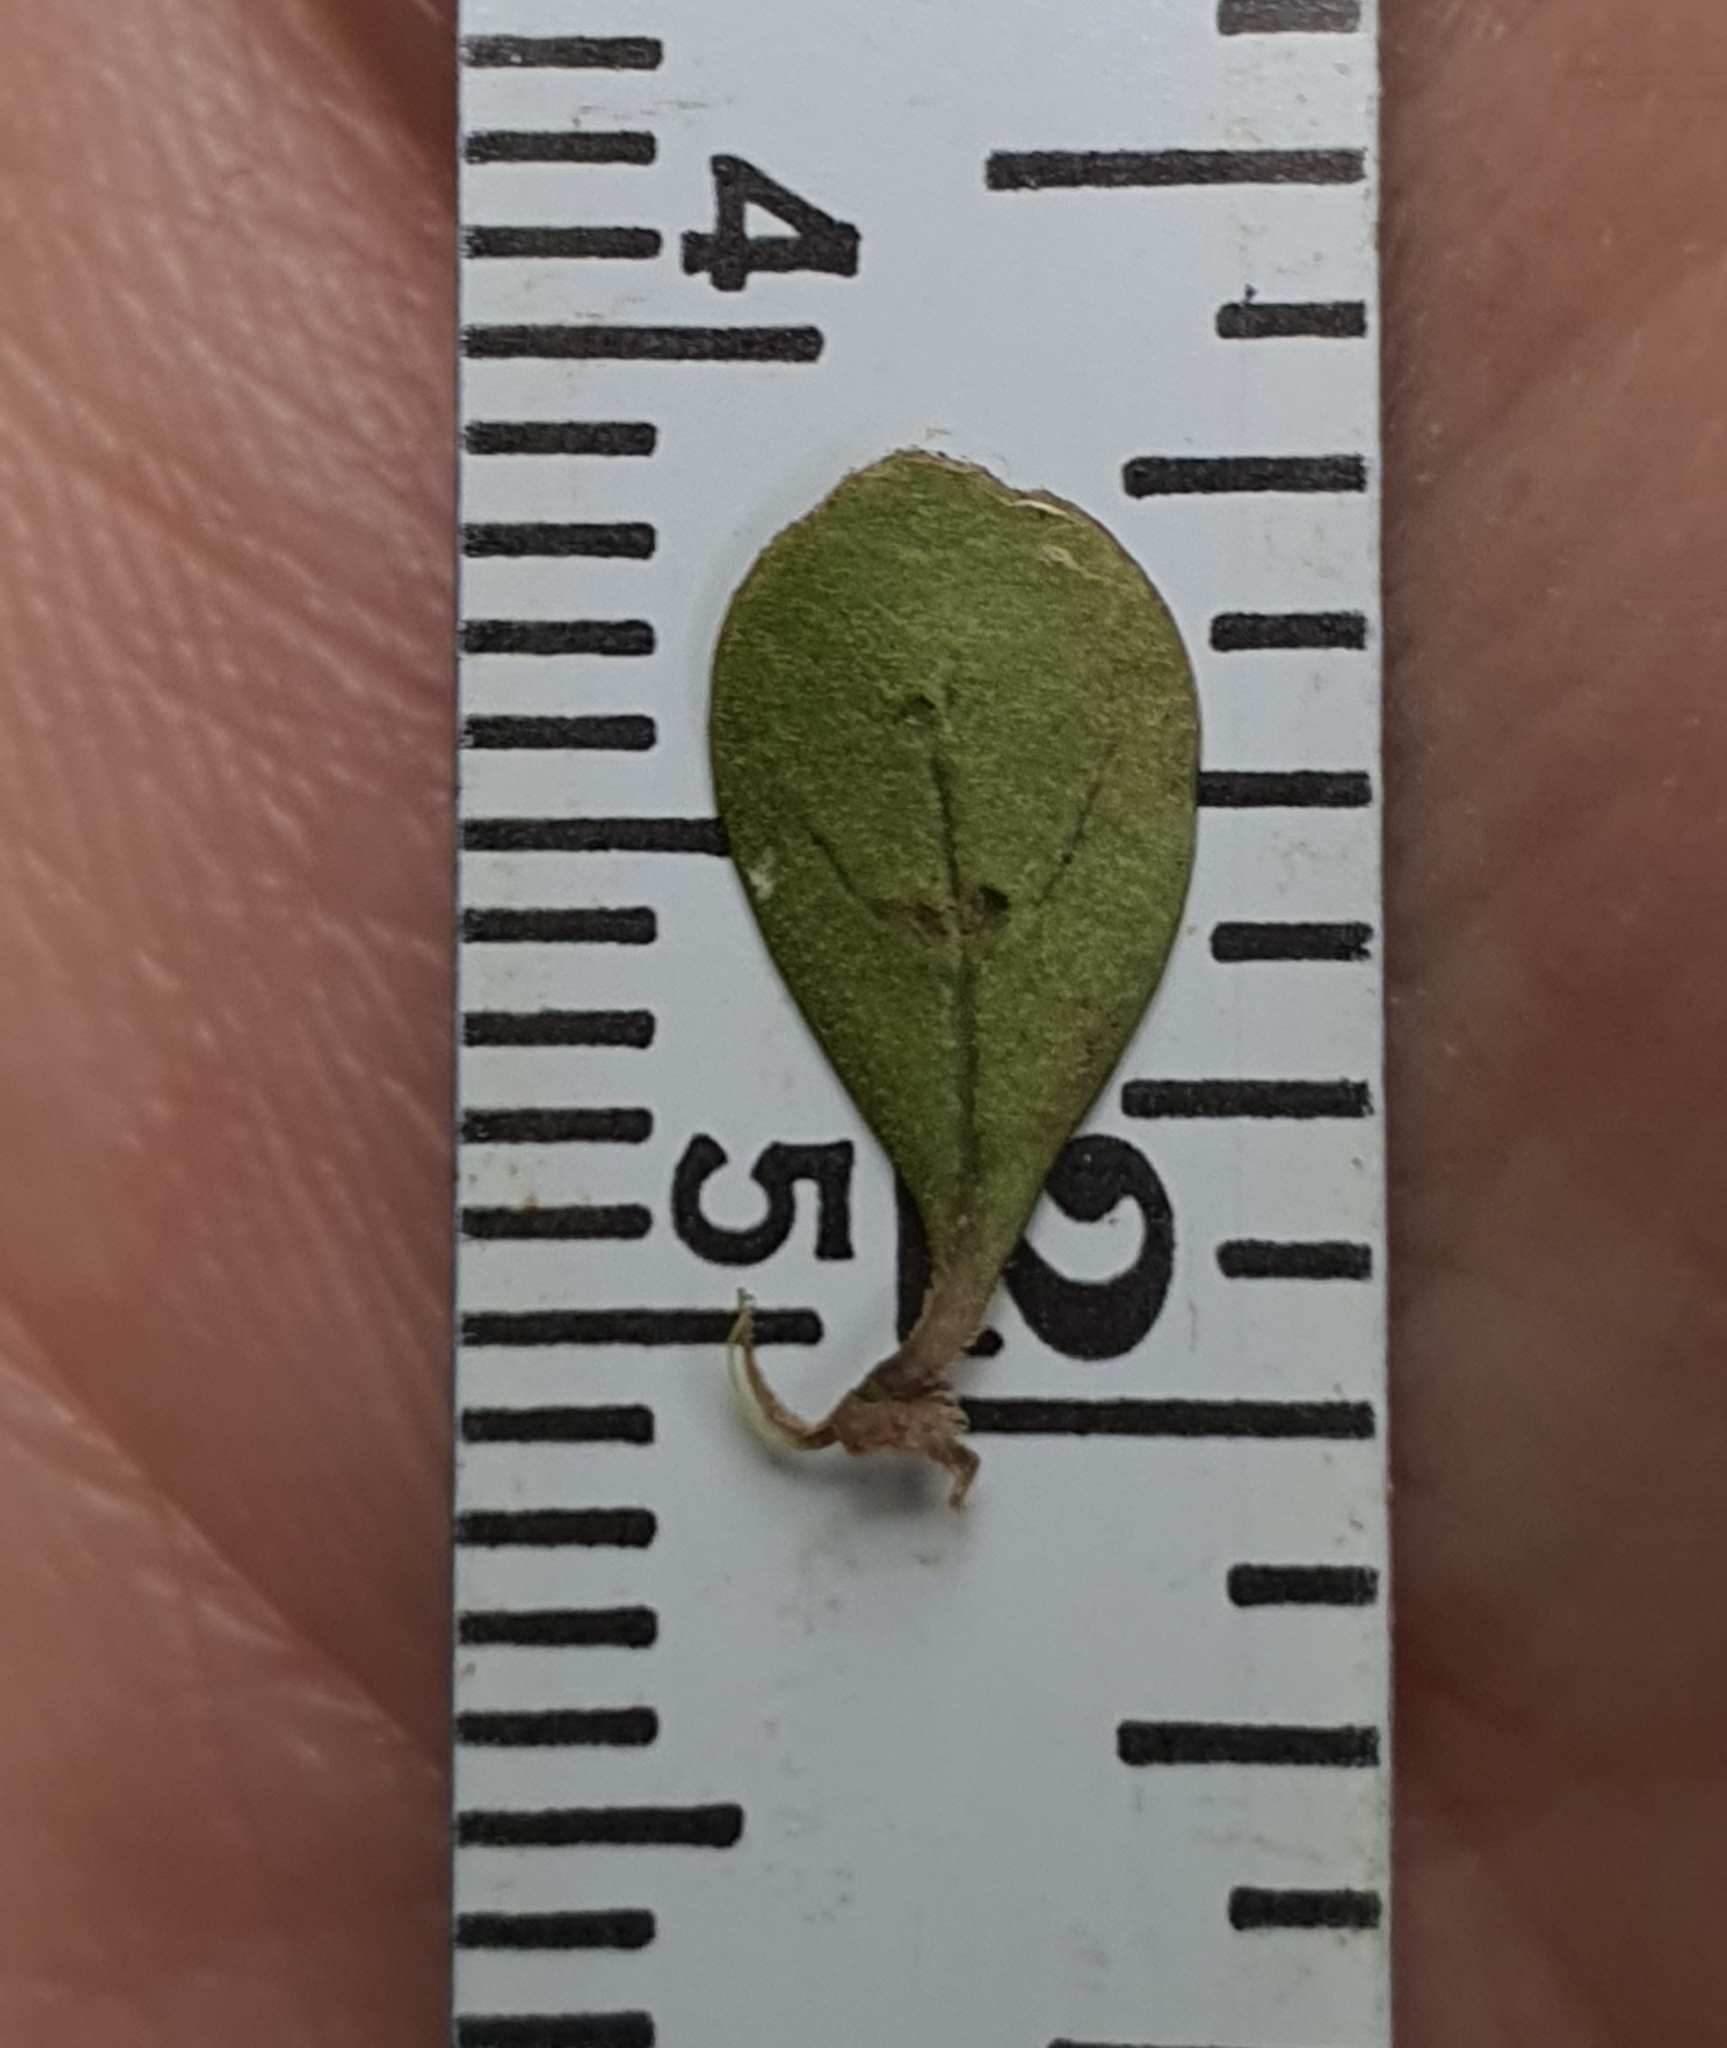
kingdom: Plantae
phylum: Tracheophyta
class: Magnoliopsida
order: Gentianales
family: Rubiaceae
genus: Coprosma
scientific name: Coprosma dumosa
